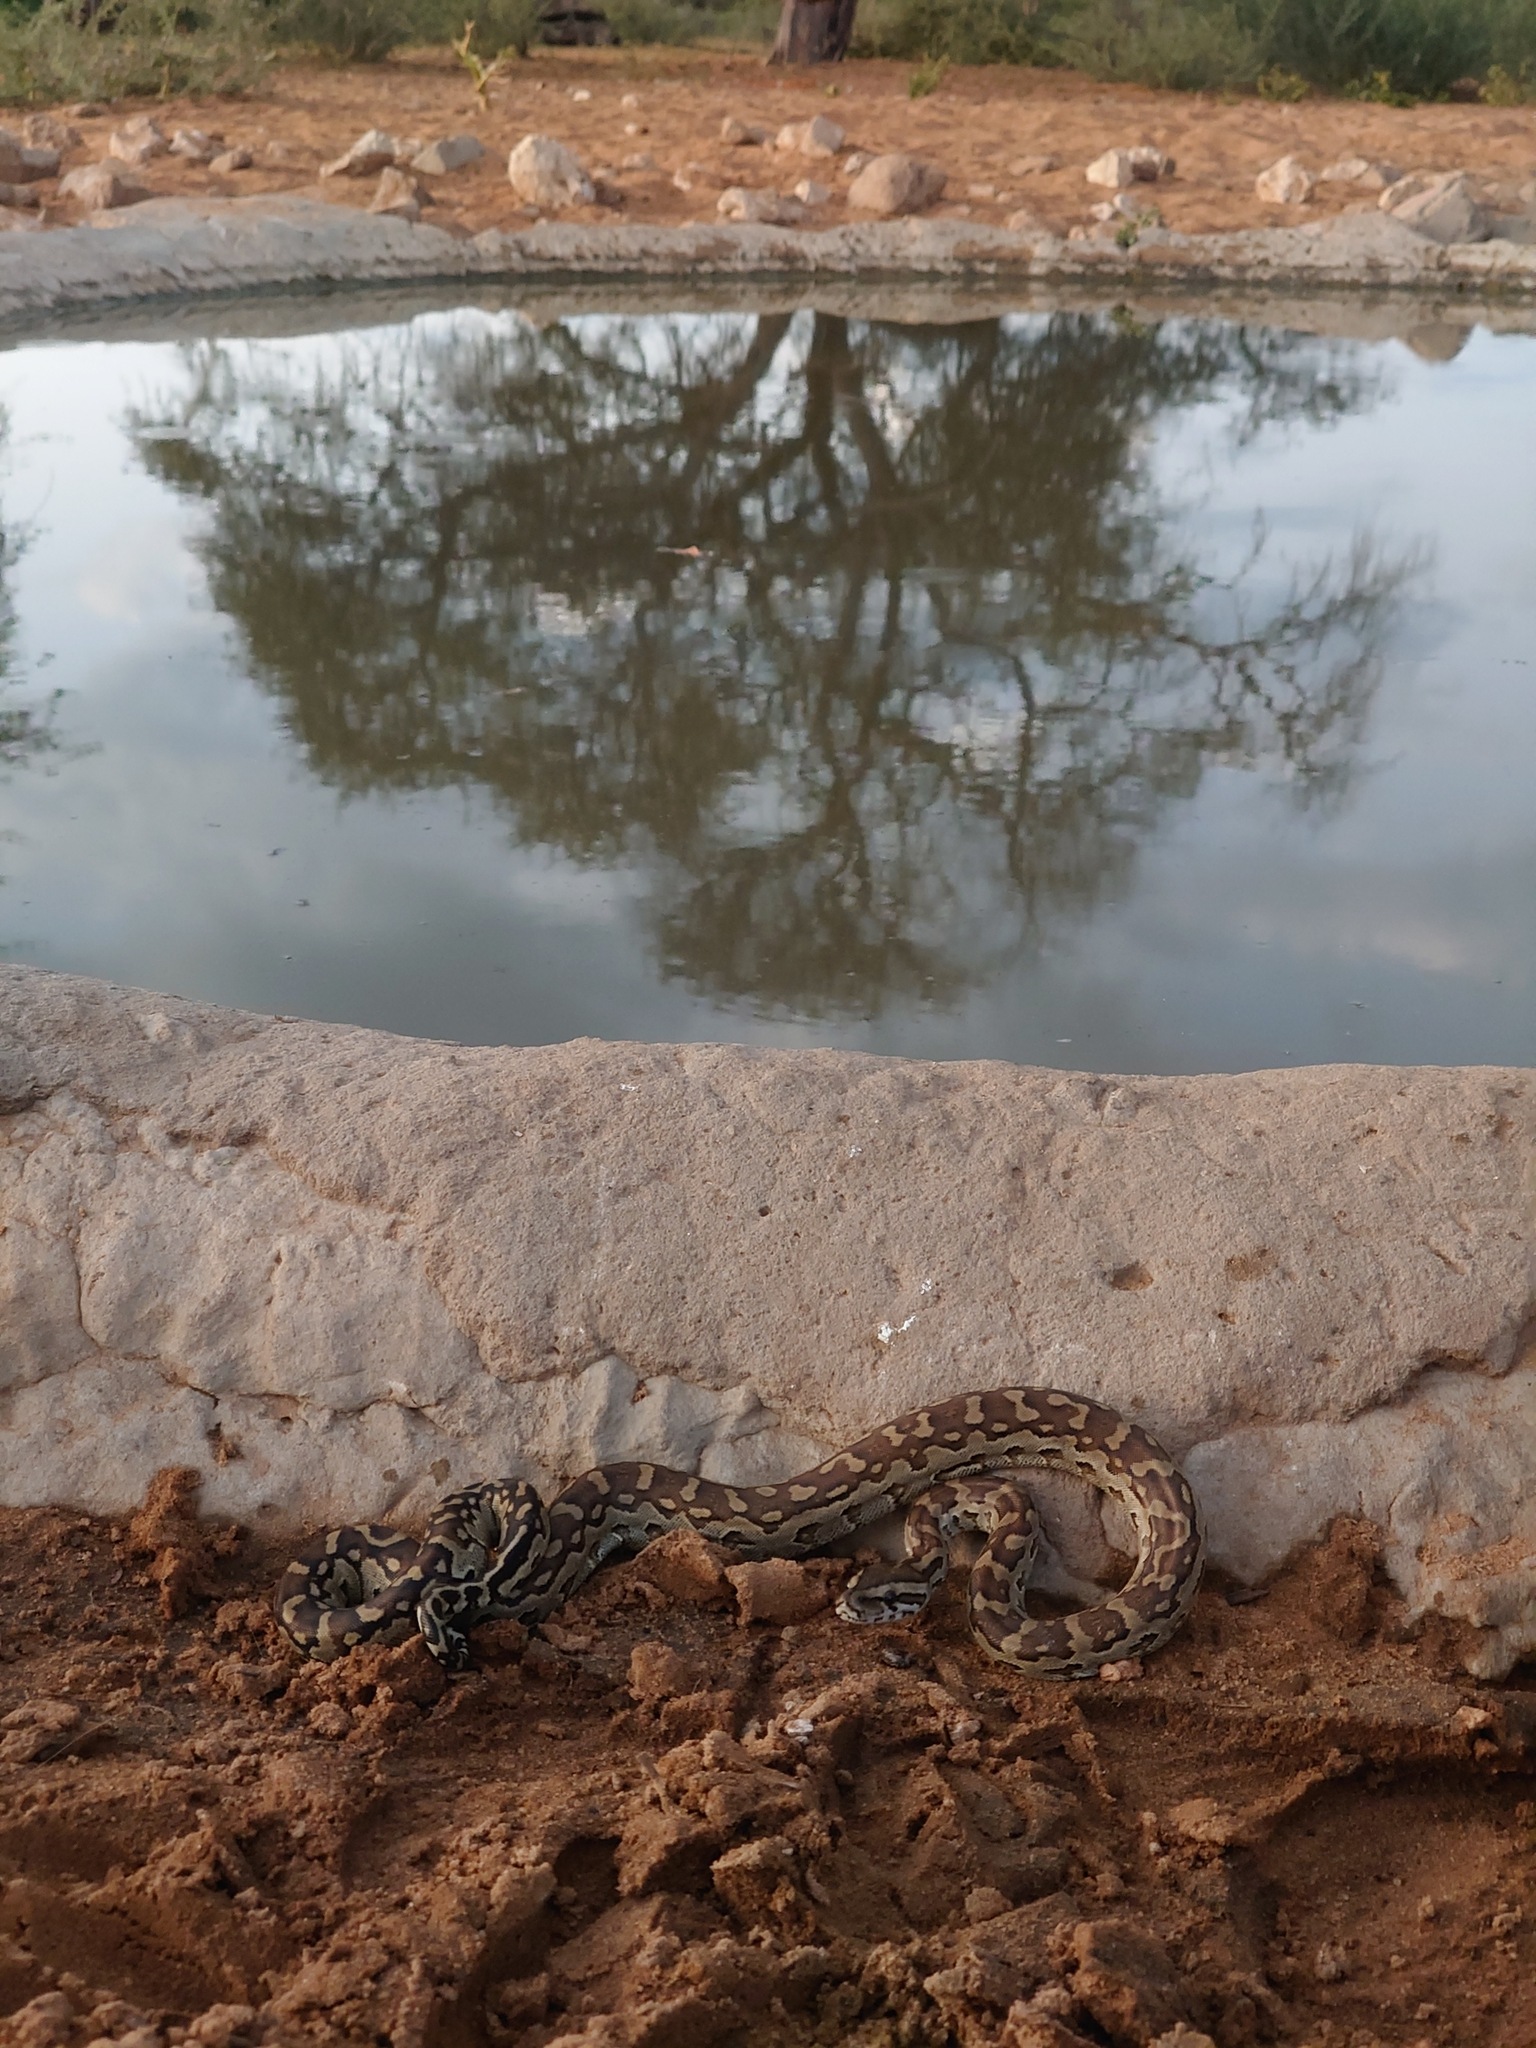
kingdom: Animalia
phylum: Chordata
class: Squamata
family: Pythonidae
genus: Python
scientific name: Python natalensis
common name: Southern african rock python
